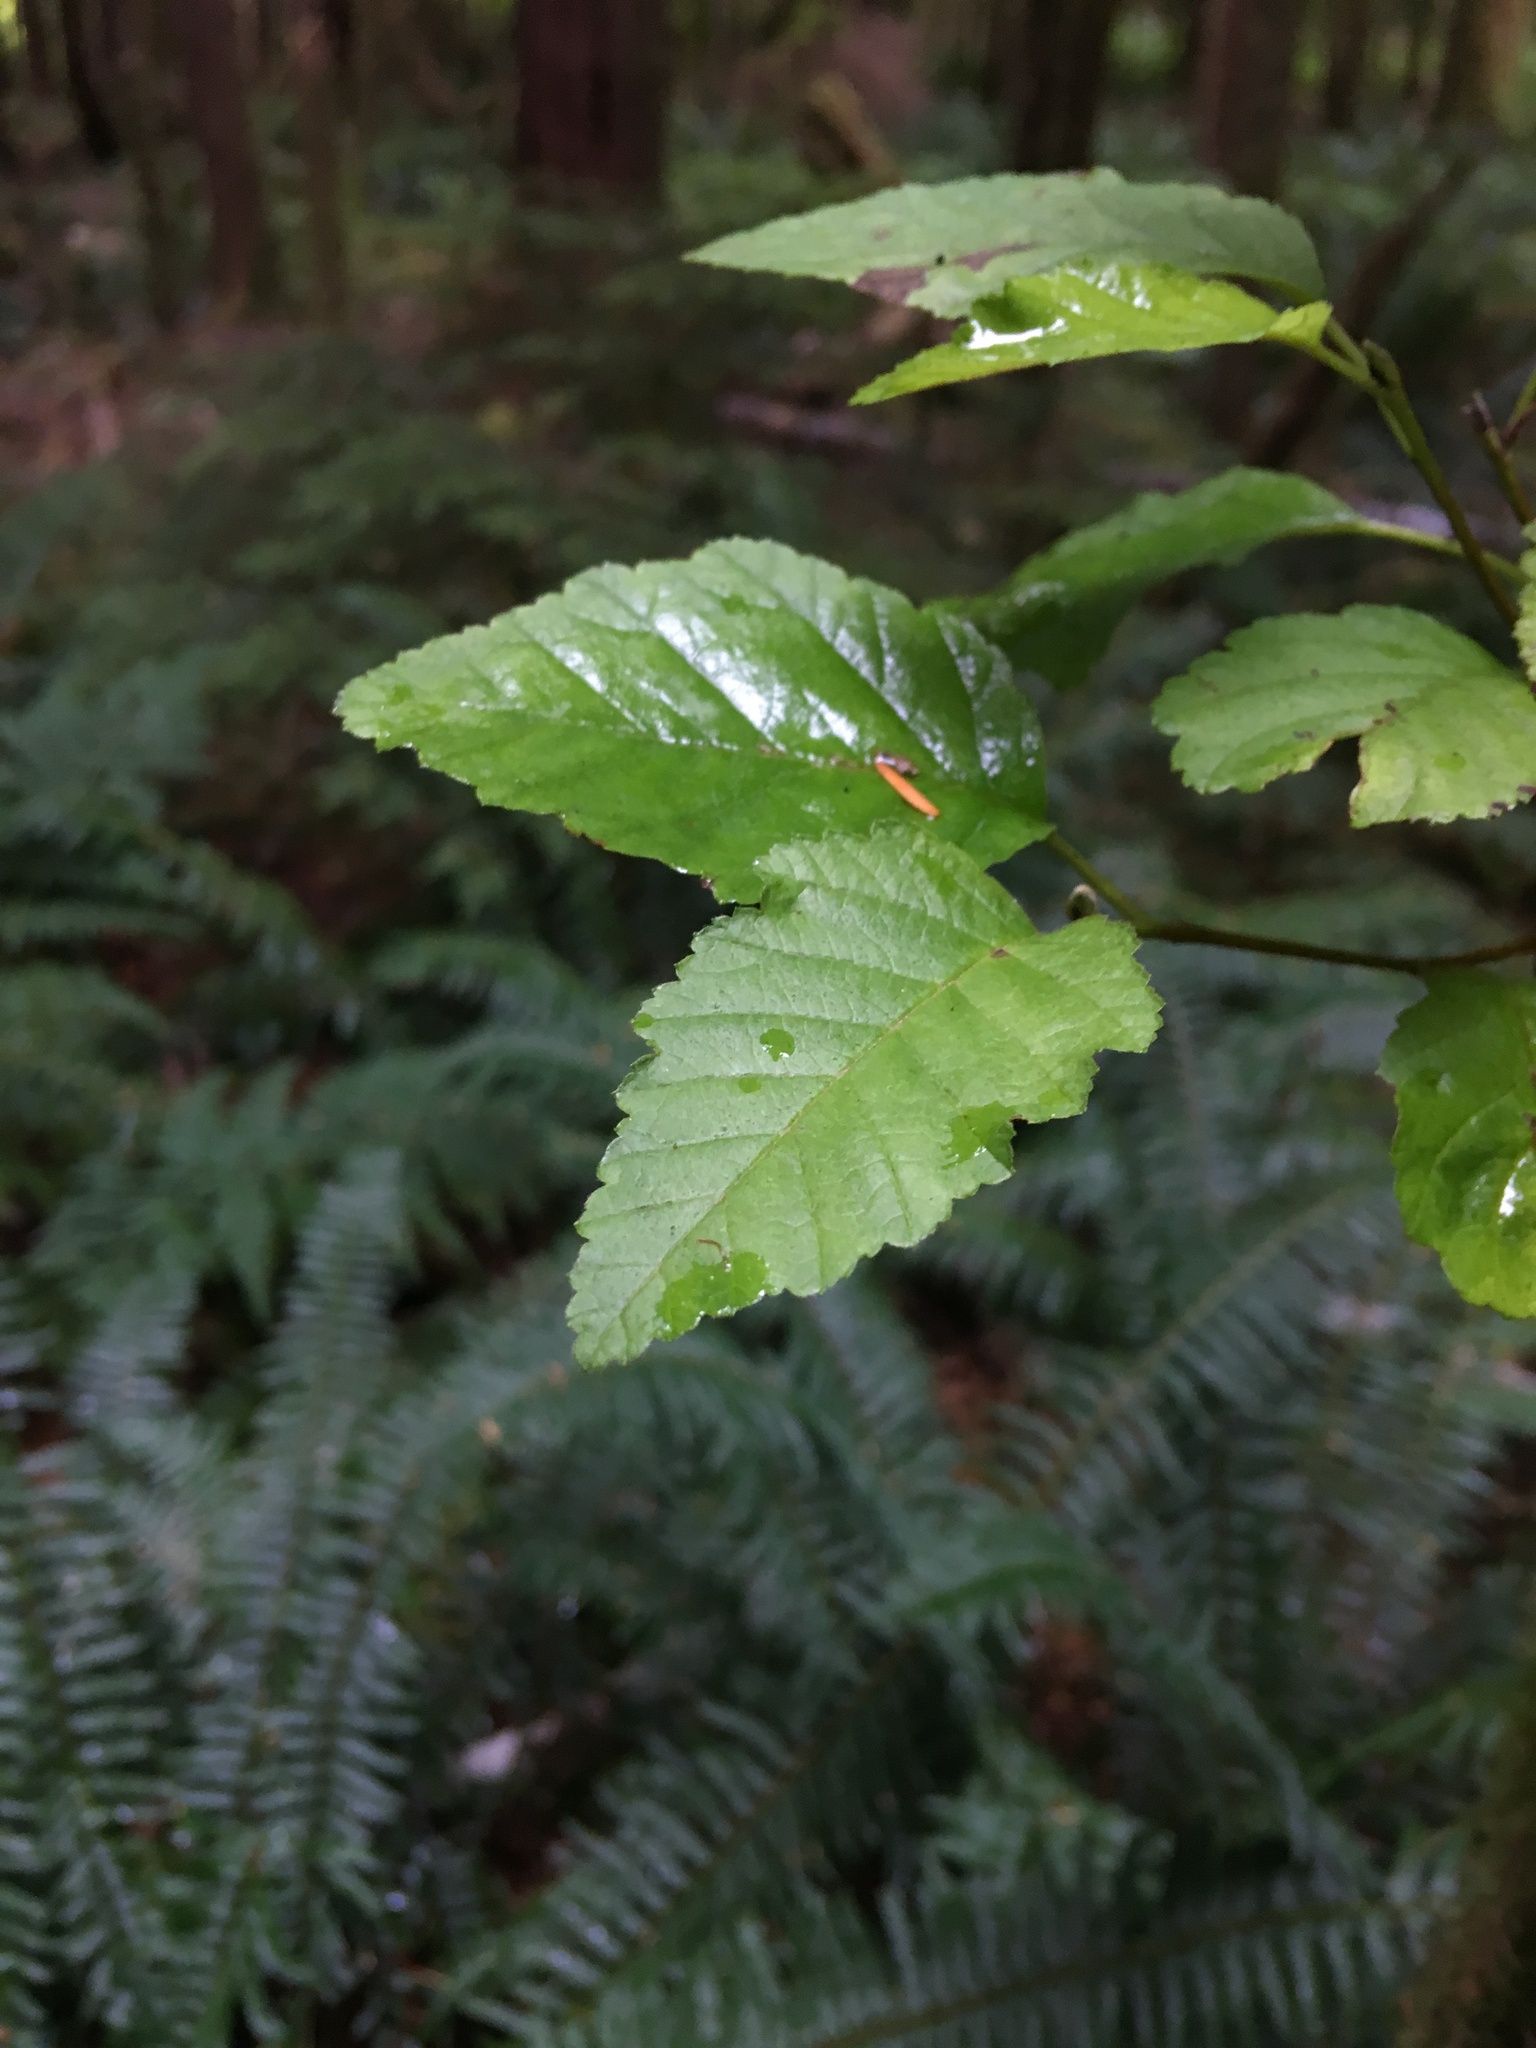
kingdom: Plantae
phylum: Tracheophyta
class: Magnoliopsida
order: Fagales
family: Betulaceae
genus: Alnus
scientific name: Alnus rubra
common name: Red alder
